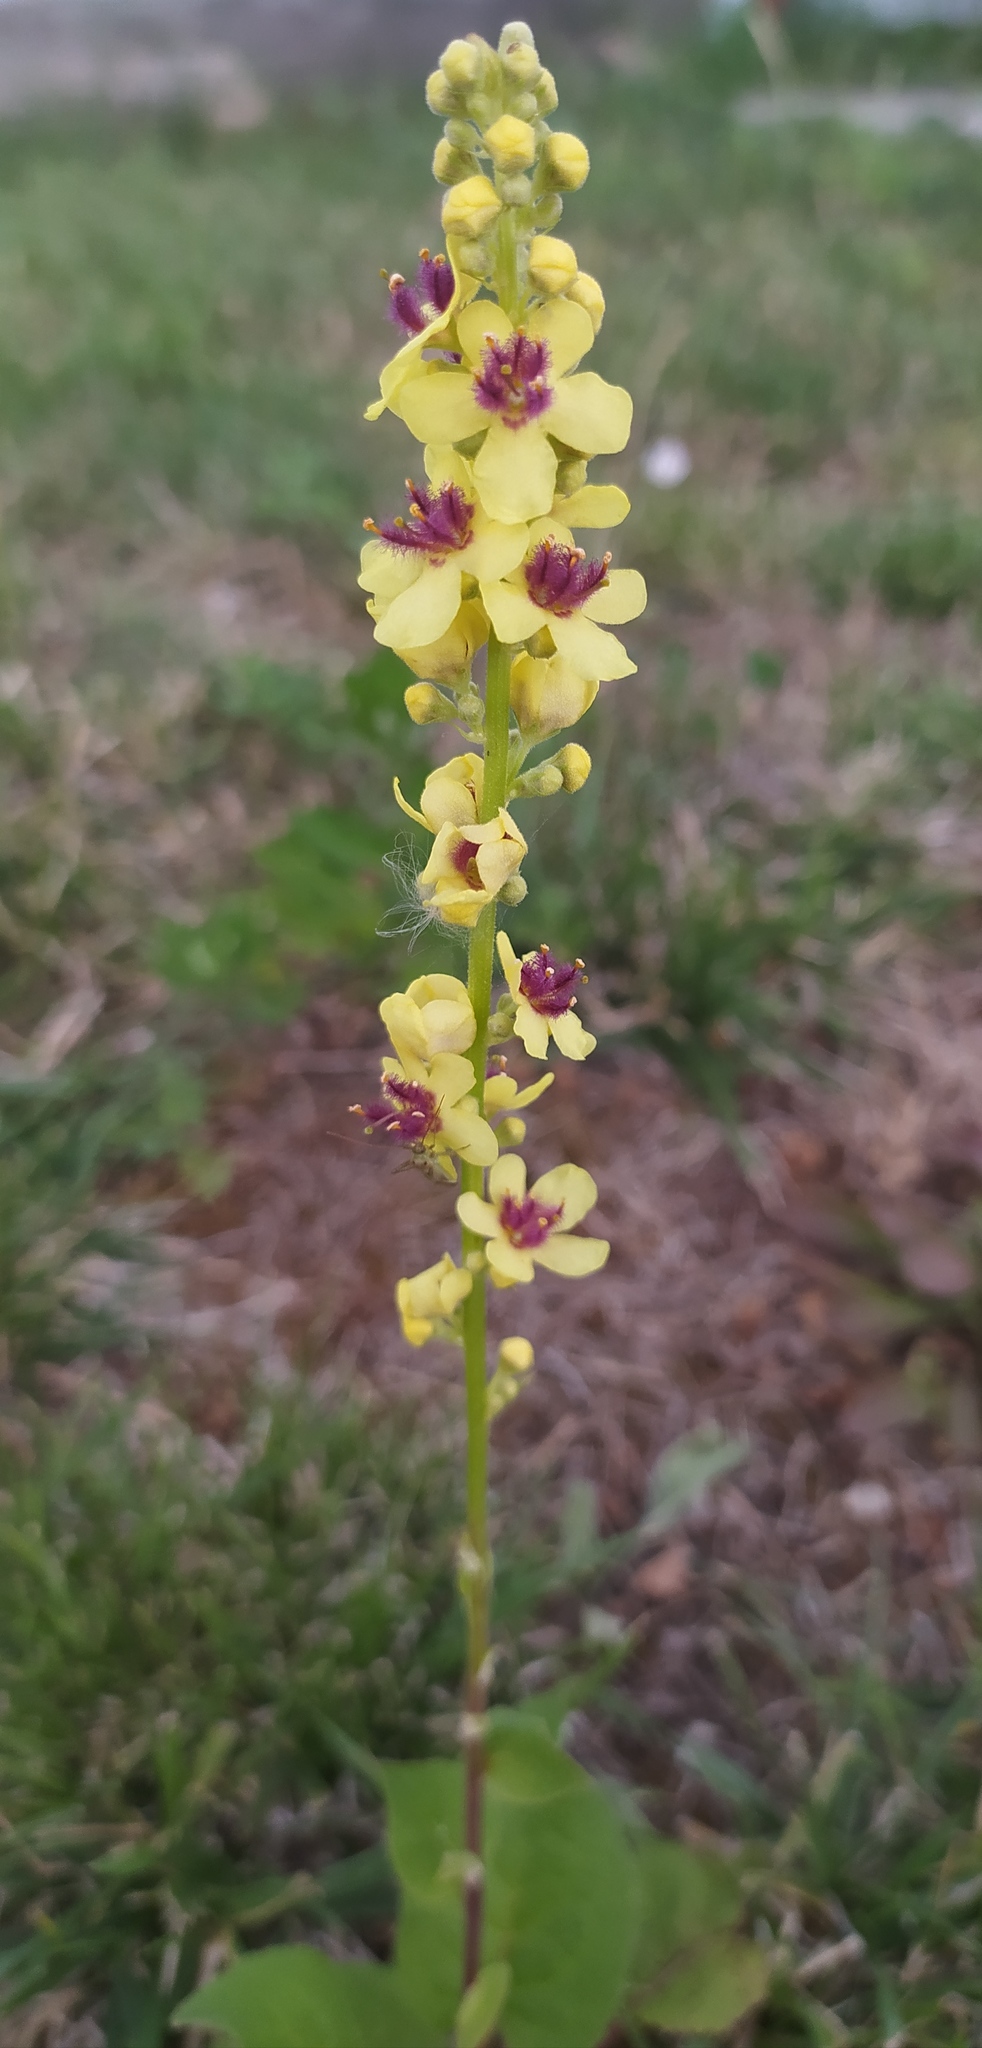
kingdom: Plantae
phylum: Tracheophyta
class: Magnoliopsida
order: Lamiales
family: Scrophulariaceae
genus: Verbascum
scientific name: Verbascum nigrum
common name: Dark mullein
